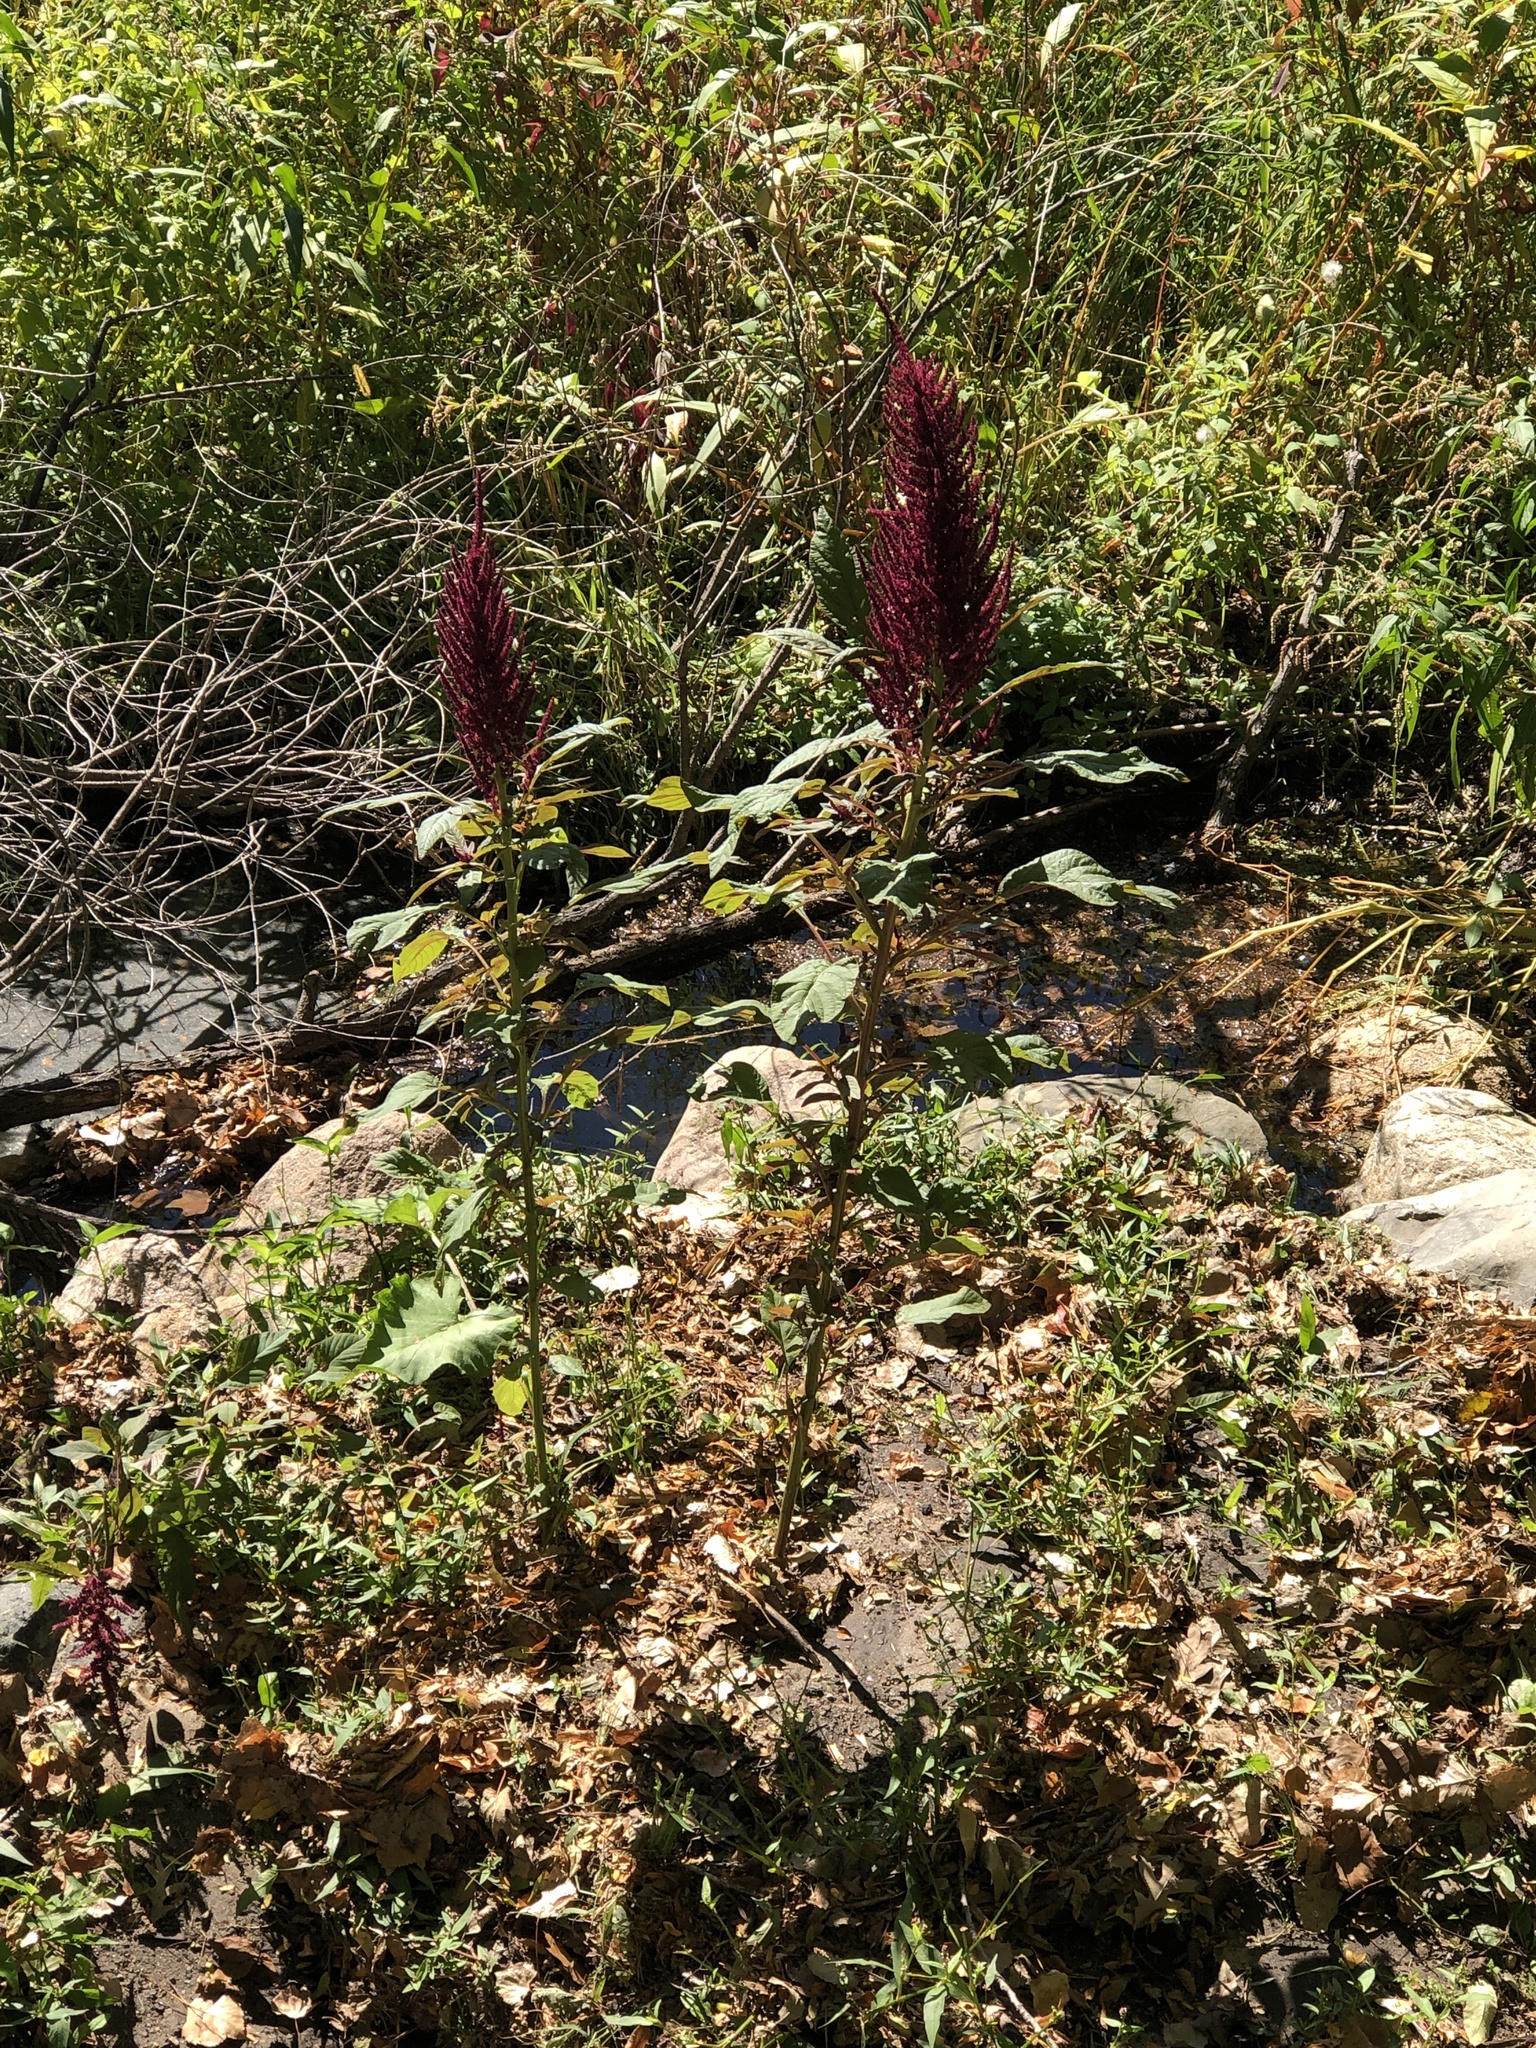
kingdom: Plantae
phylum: Tracheophyta
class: Magnoliopsida
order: Caryophyllales
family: Amaranthaceae
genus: Amaranthus
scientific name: Amaranthus cruentus
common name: Purple amaranth
